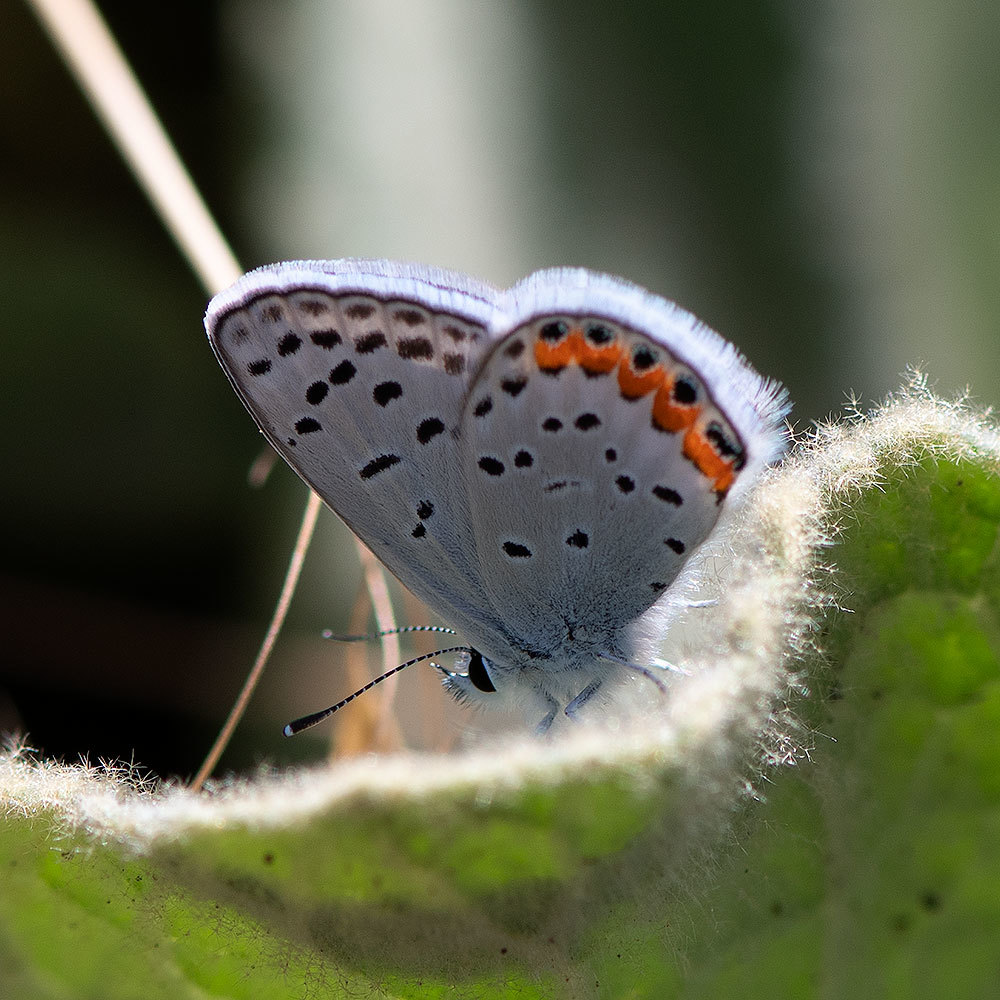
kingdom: Animalia
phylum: Arthropoda
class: Insecta
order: Lepidoptera
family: Lycaenidae
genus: Icaricia
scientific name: Icaricia acmon
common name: Acmon blue
